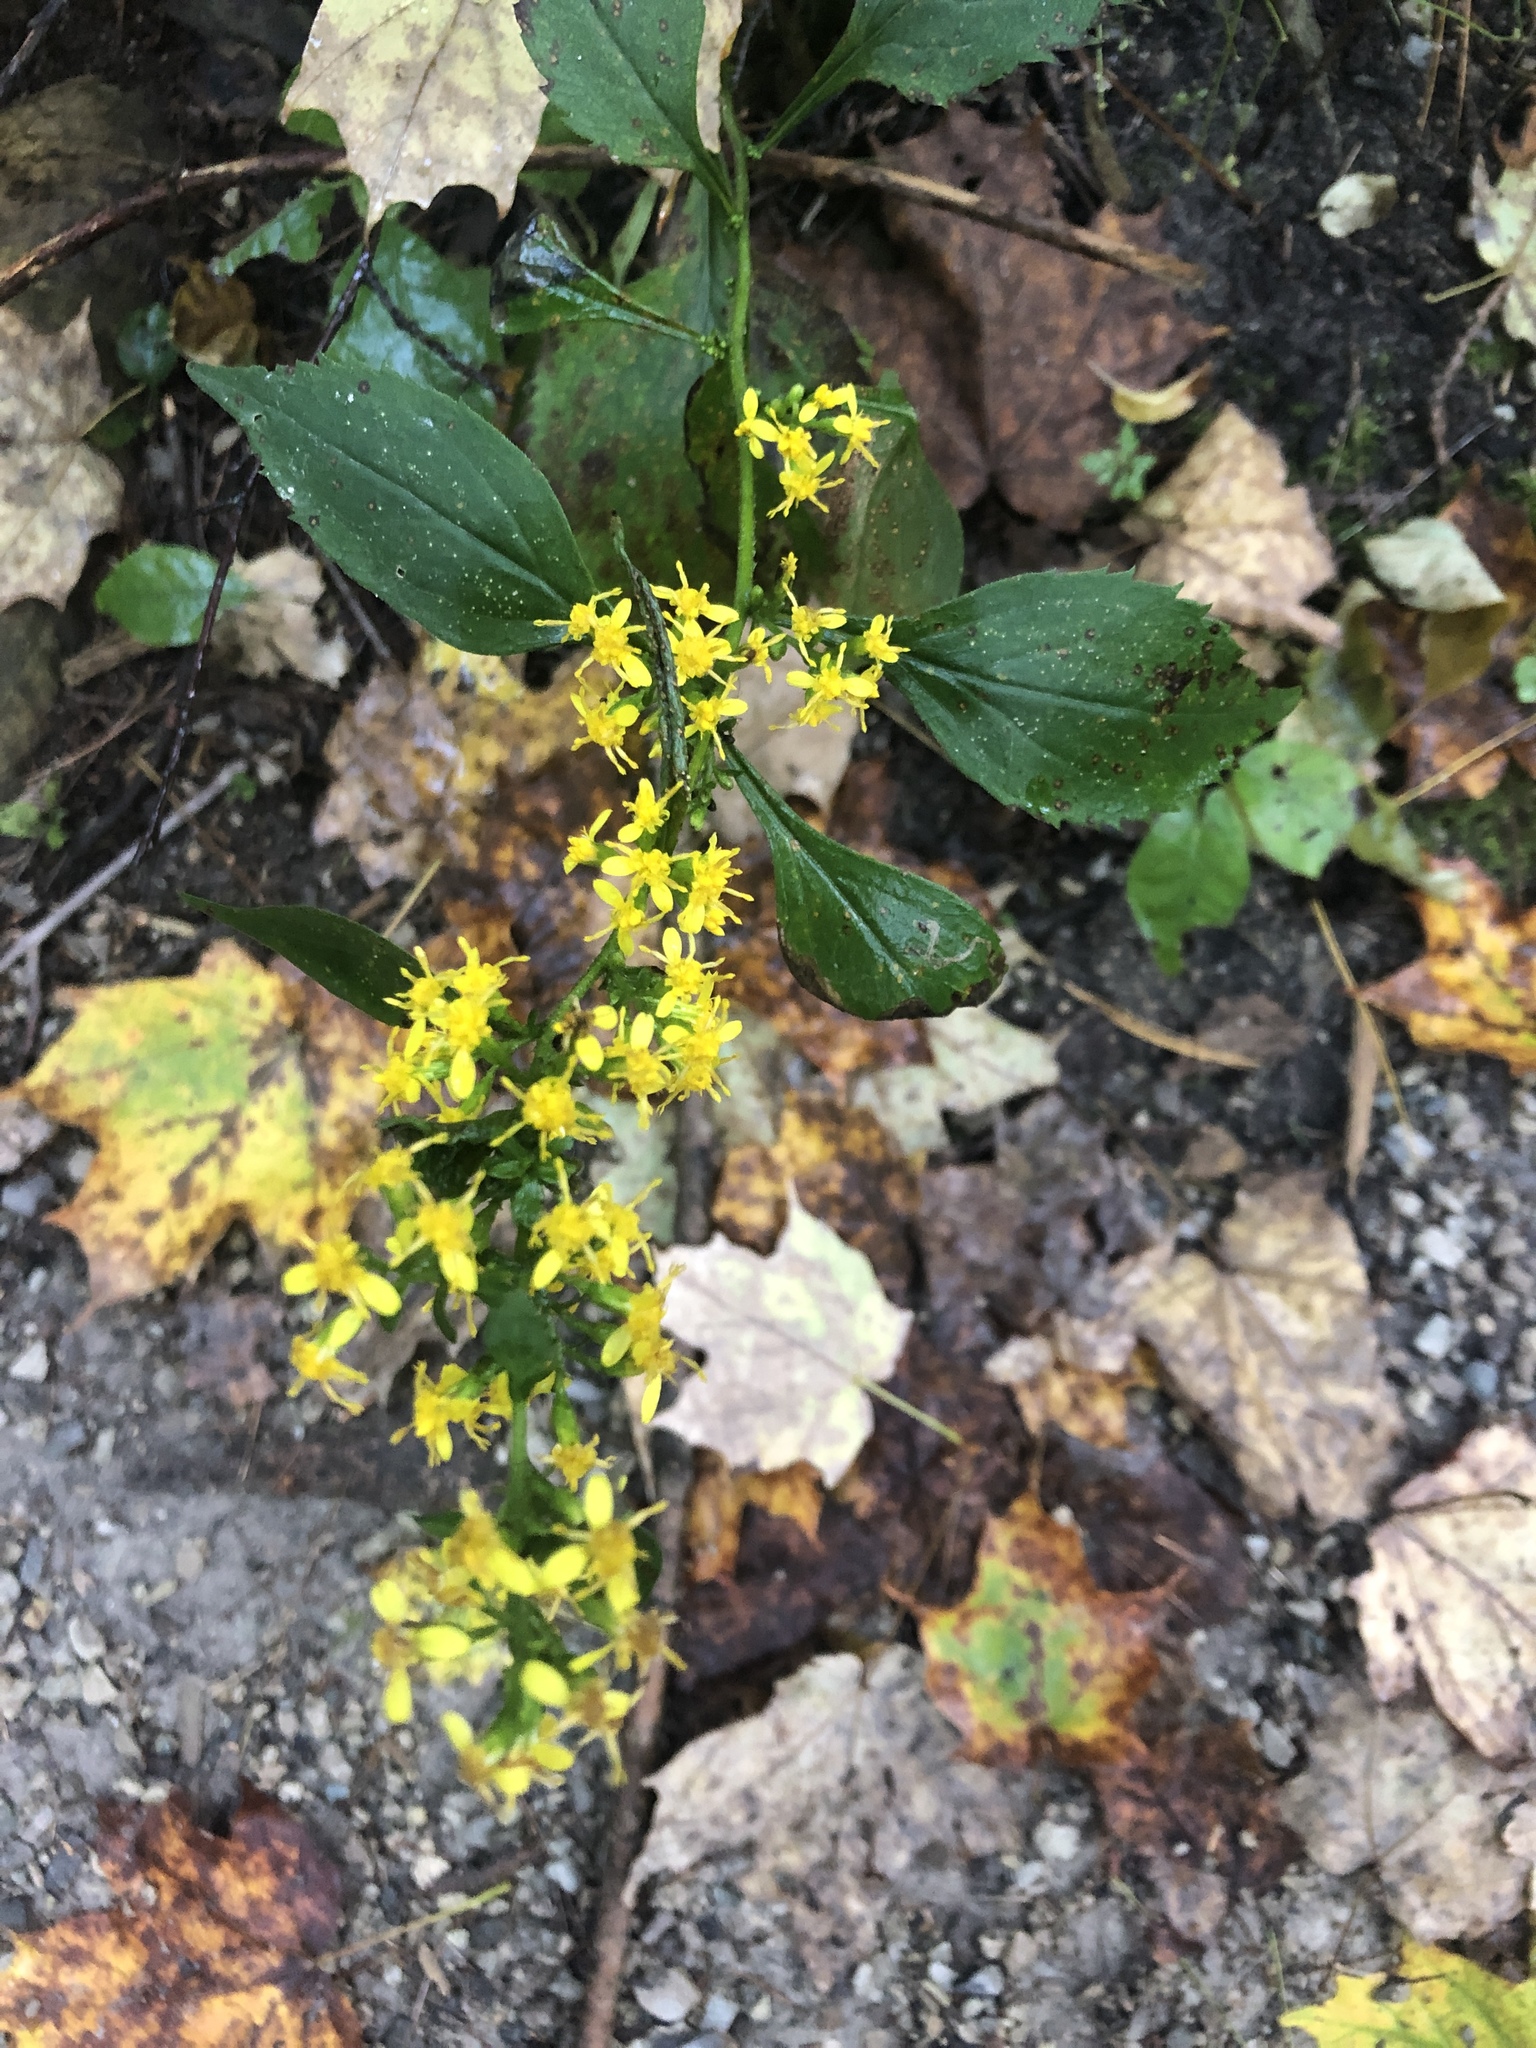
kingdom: Plantae
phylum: Tracheophyta
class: Magnoliopsida
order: Asterales
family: Asteraceae
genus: Solidago
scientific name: Solidago flexicaulis
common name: Zig-zag goldenrod
